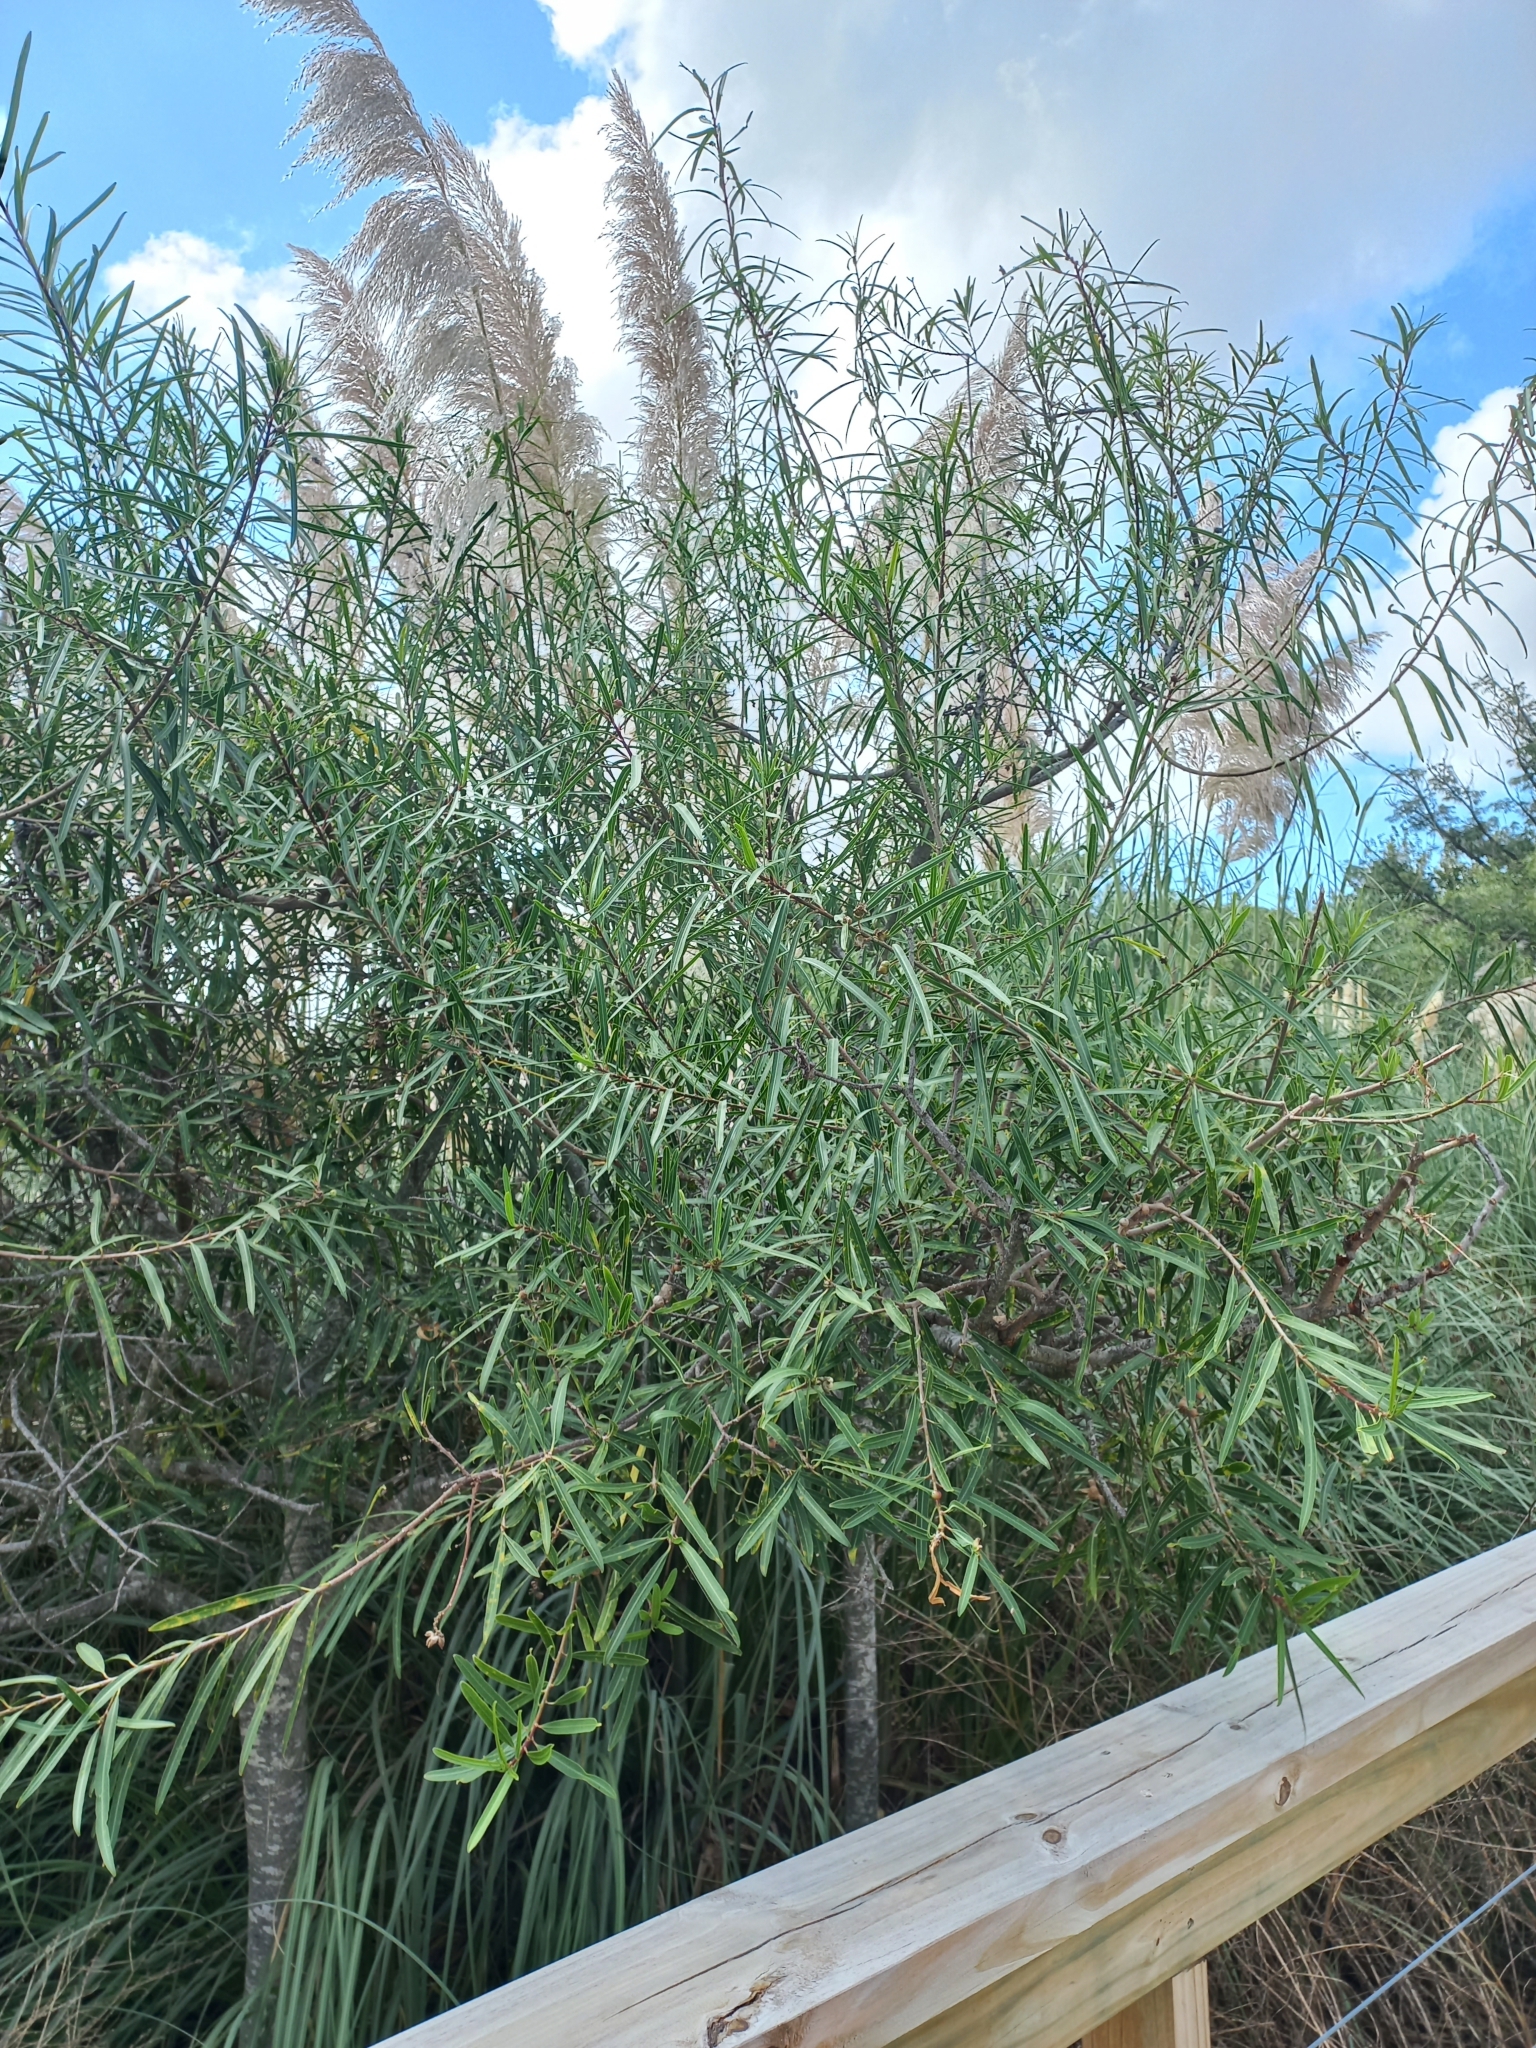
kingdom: Plantae
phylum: Tracheophyta
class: Magnoliopsida
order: Malpighiales
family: Euphorbiaceae
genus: Sapium
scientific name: Sapium haematospermum
